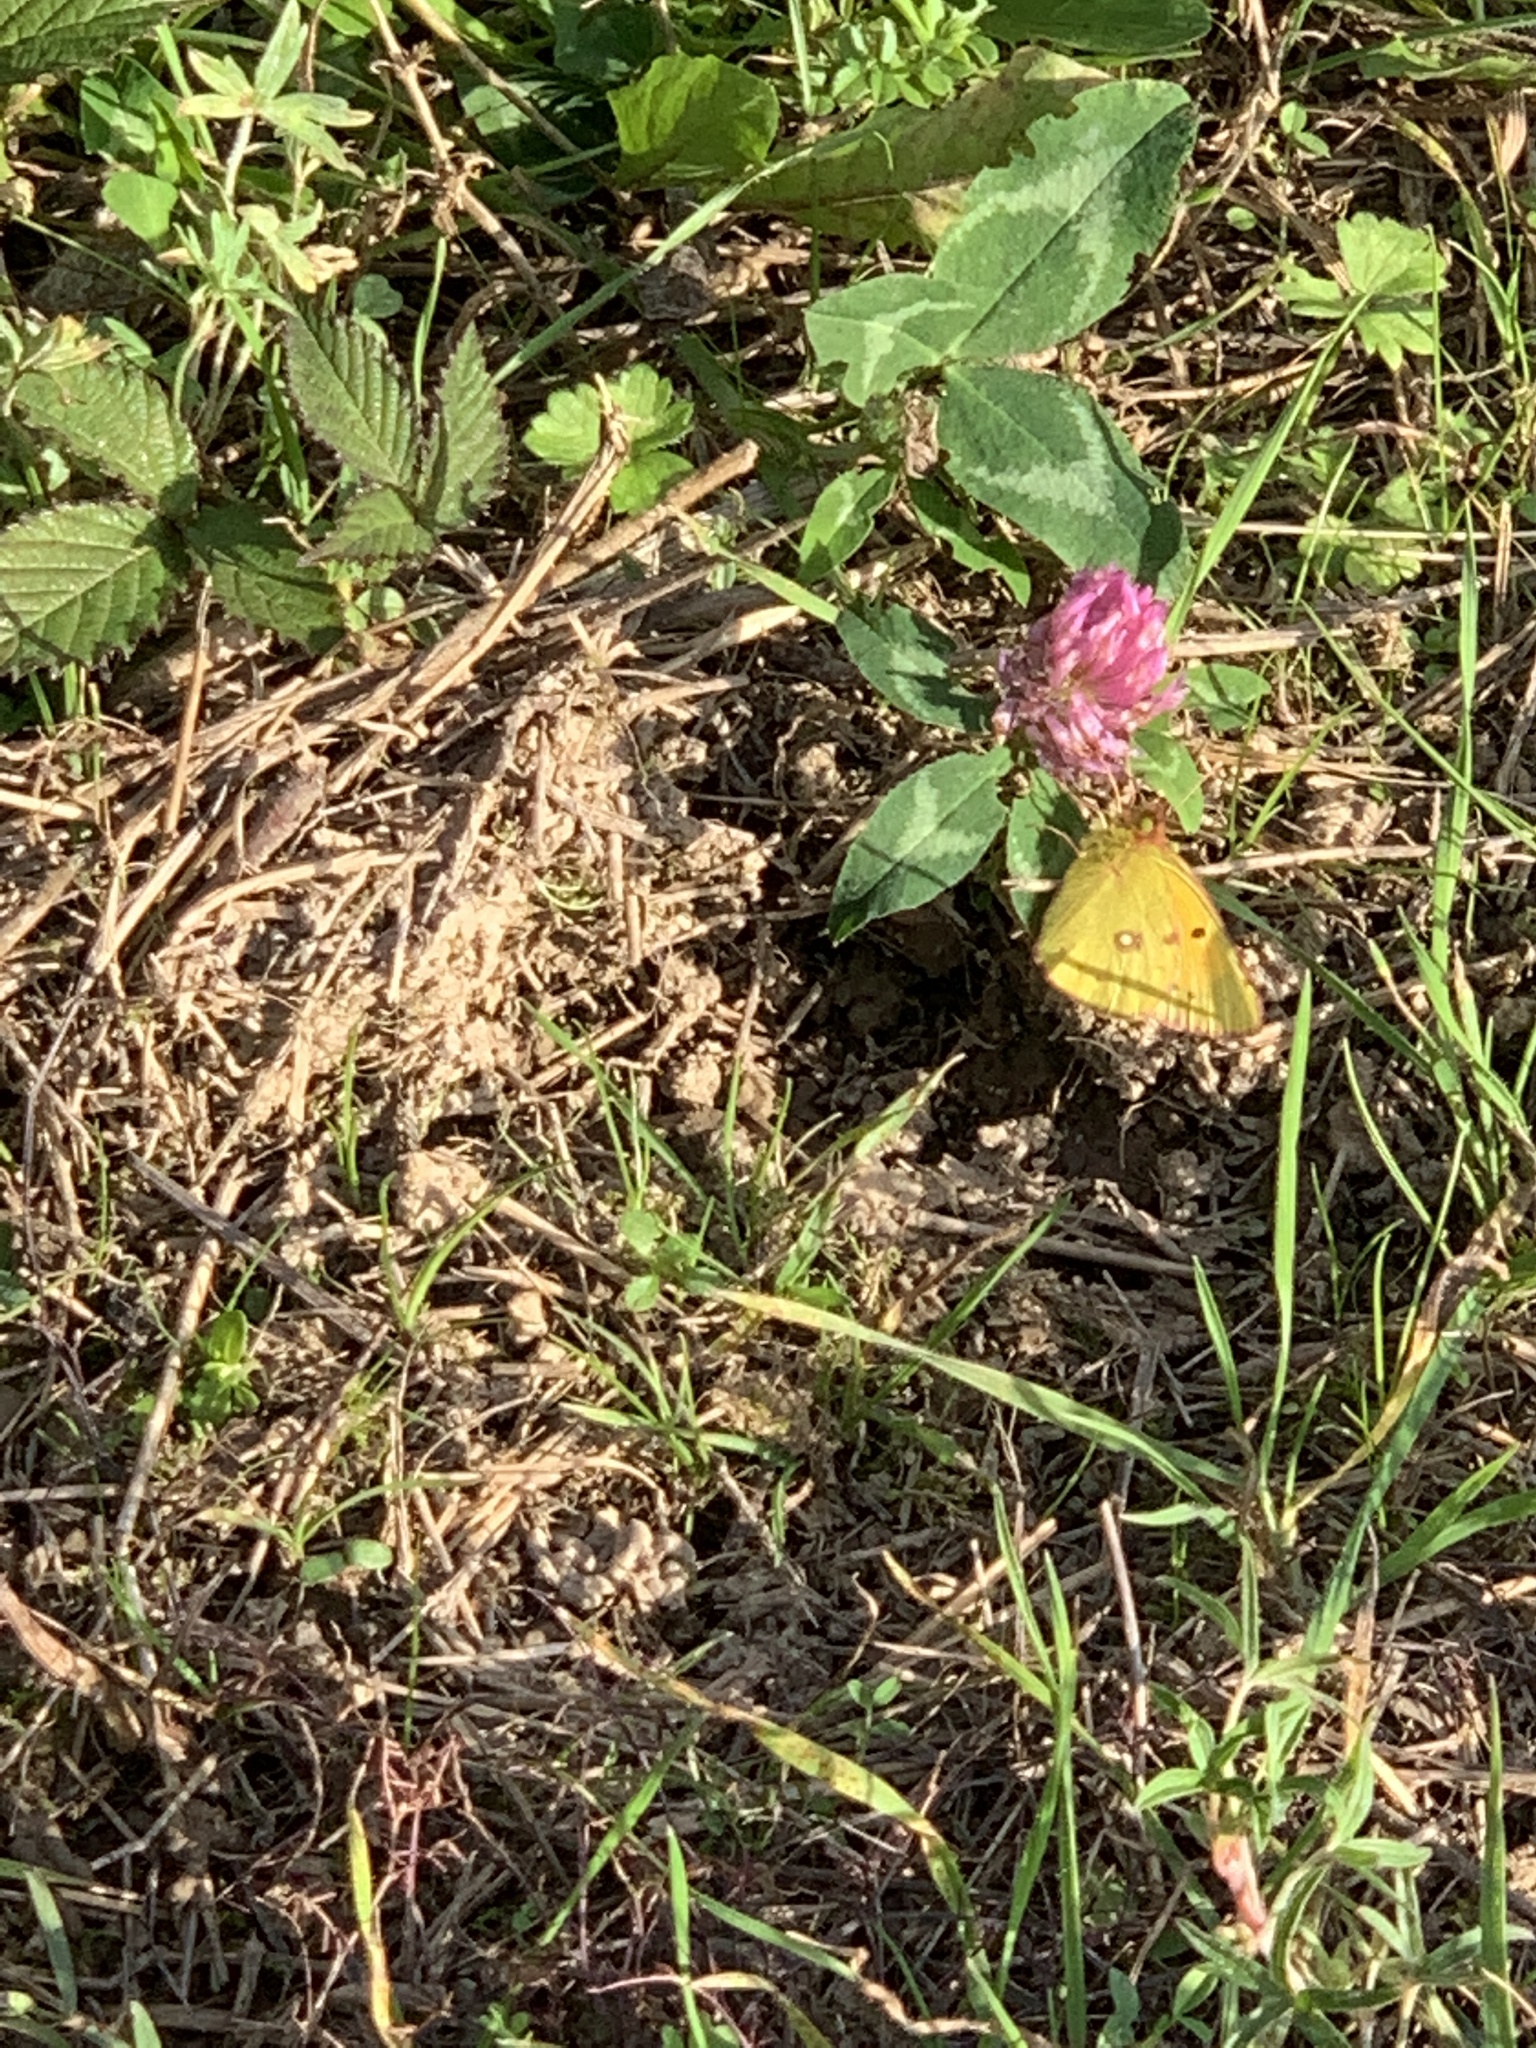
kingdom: Animalia
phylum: Arthropoda
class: Insecta
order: Lepidoptera
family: Pieridae
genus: Colias
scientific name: Colias croceus
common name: Clouded yellow
